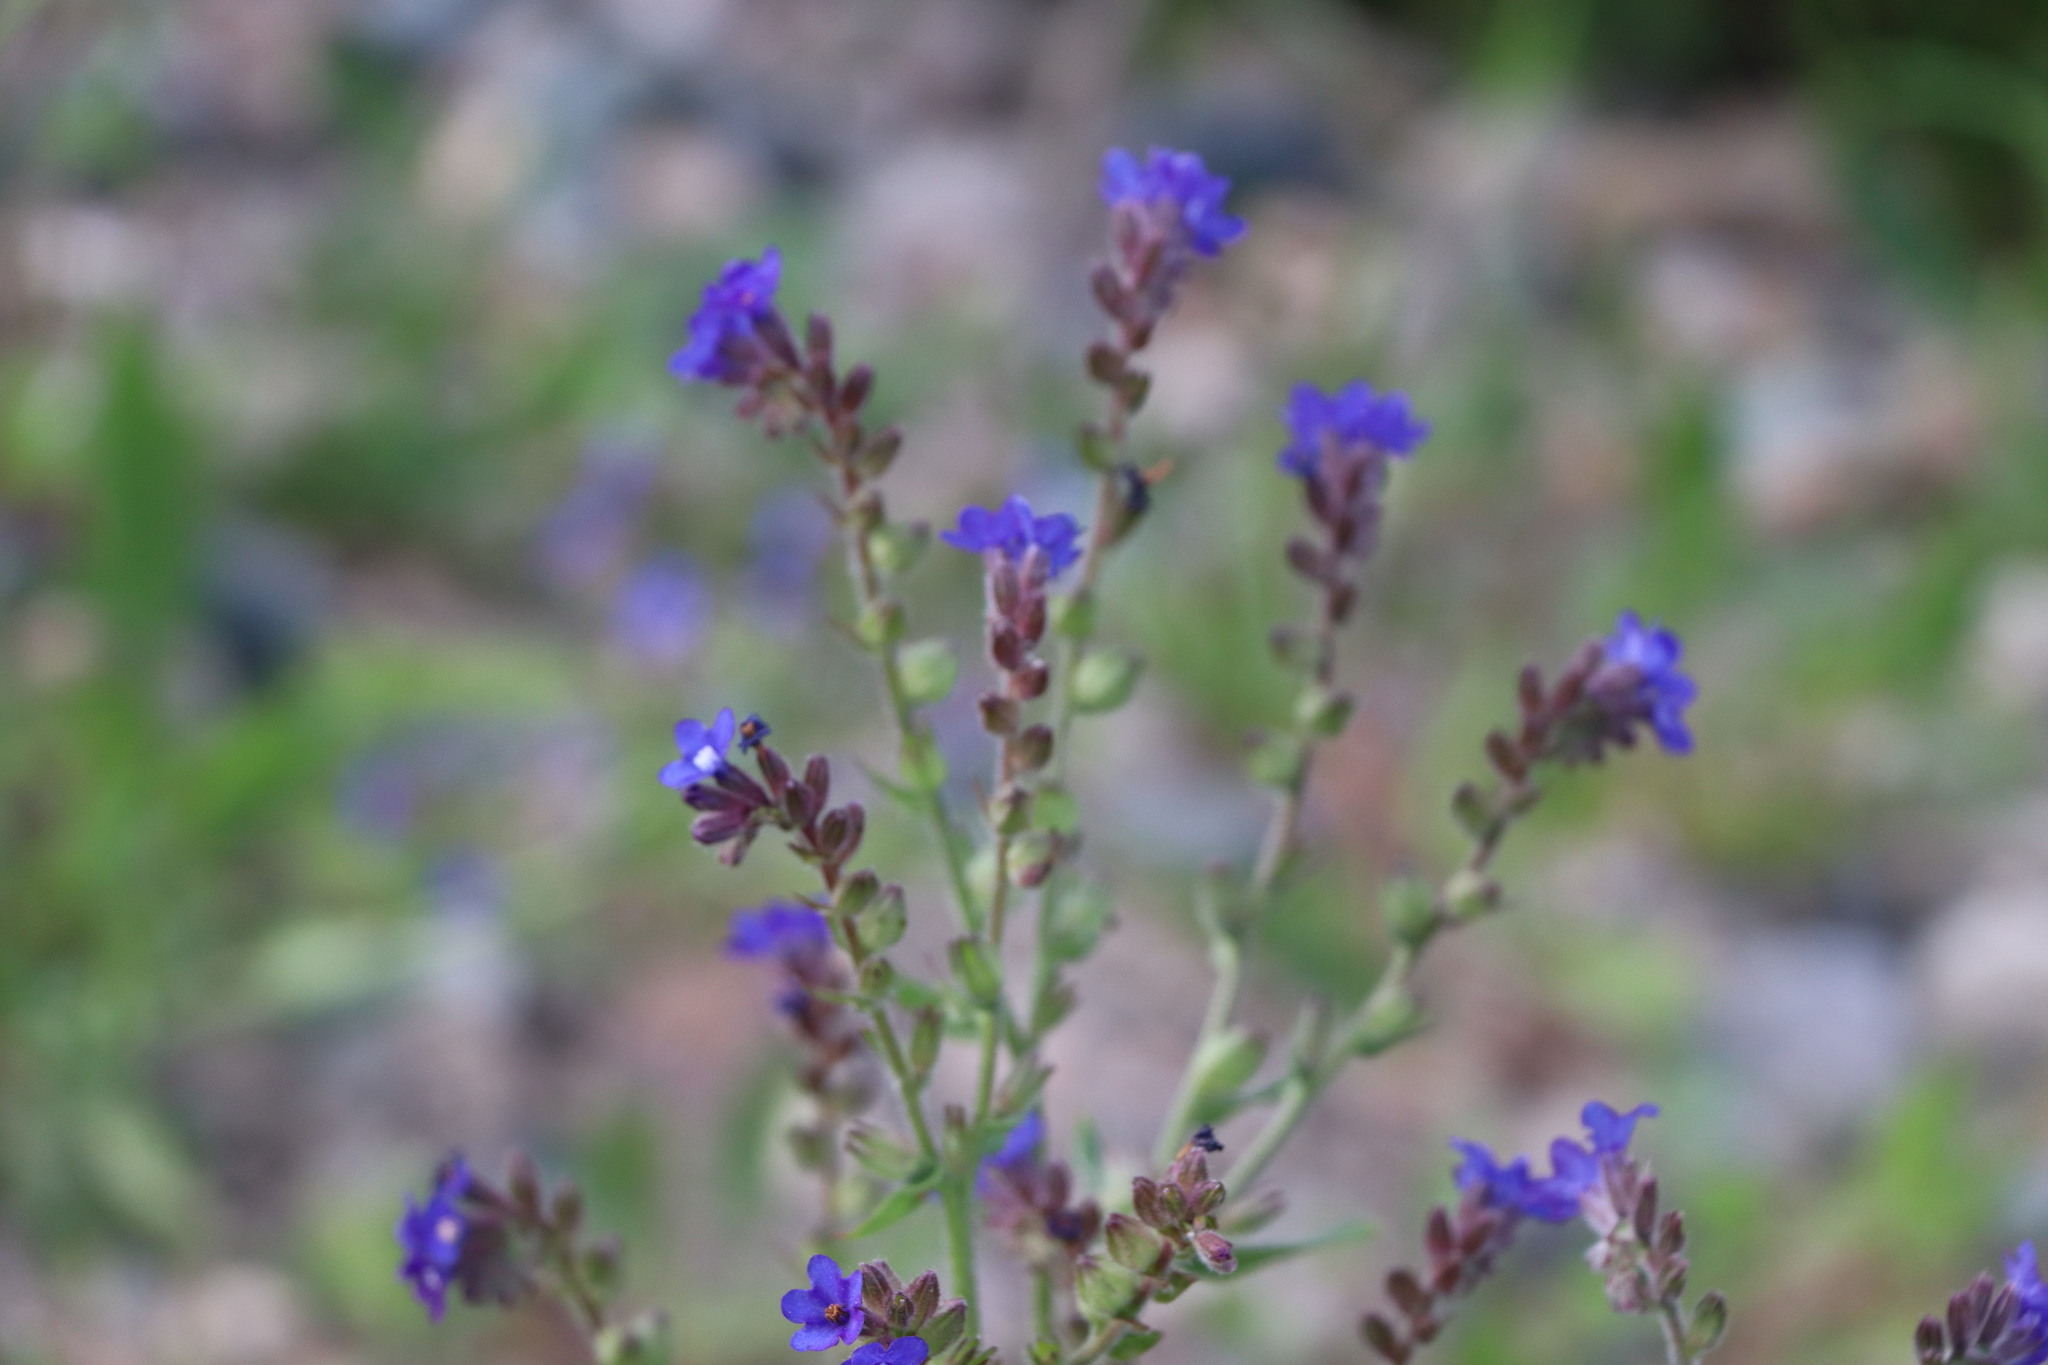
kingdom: Plantae
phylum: Tracheophyta
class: Magnoliopsida
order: Boraginales
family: Boraginaceae
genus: Anchusa
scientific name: Anchusa officinalis
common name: Alkanet
